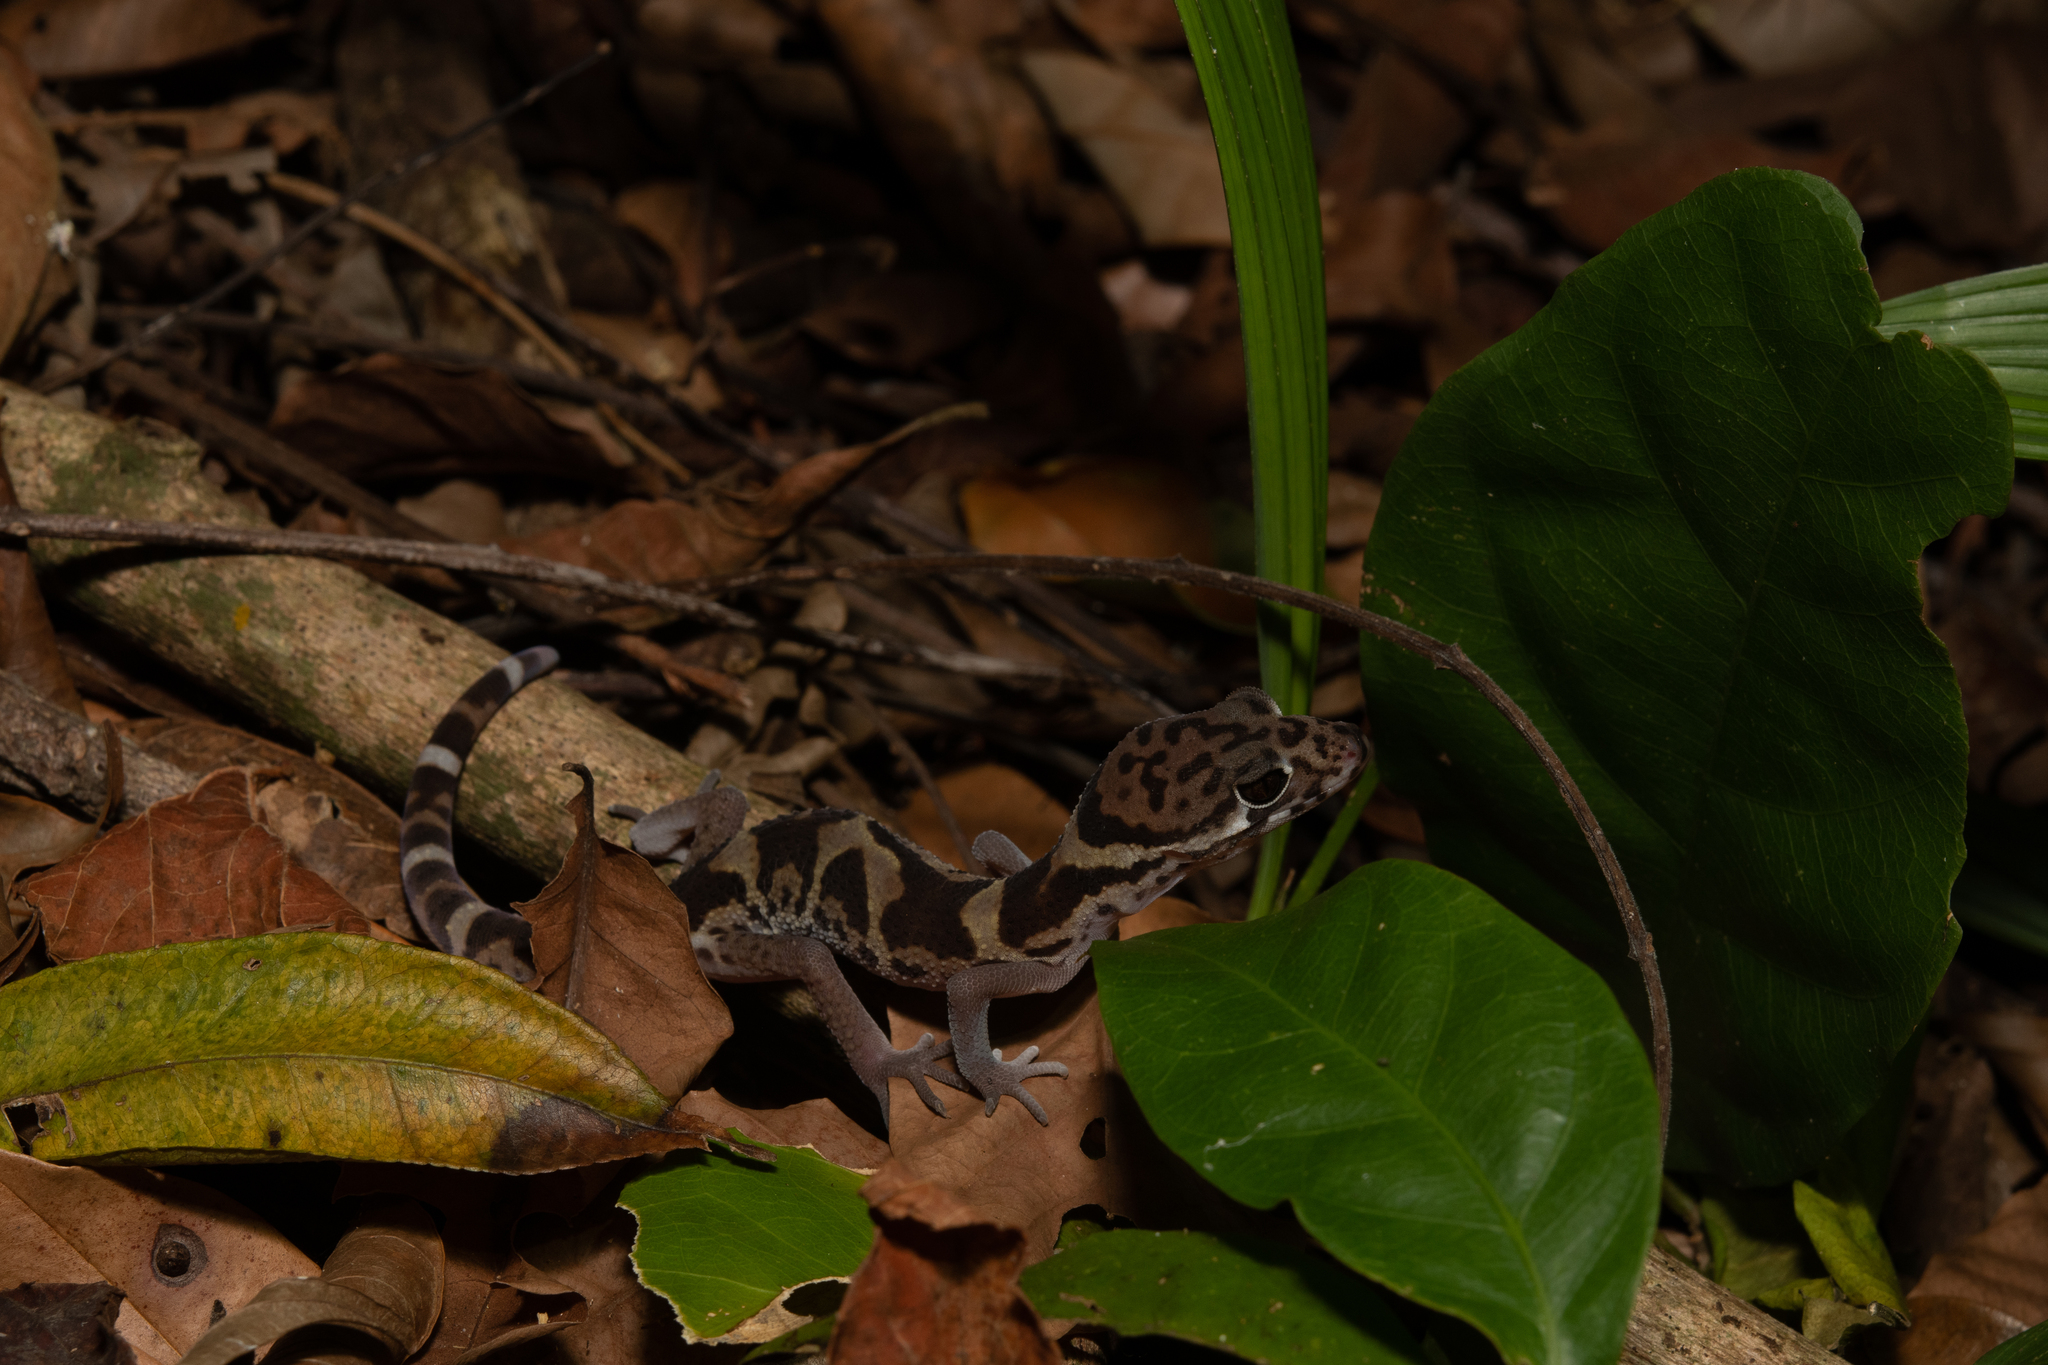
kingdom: Animalia
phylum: Chordata
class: Squamata
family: Eublepharidae
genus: Coleonyx
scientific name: Coleonyx mitratus
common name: Central american banded gecko
